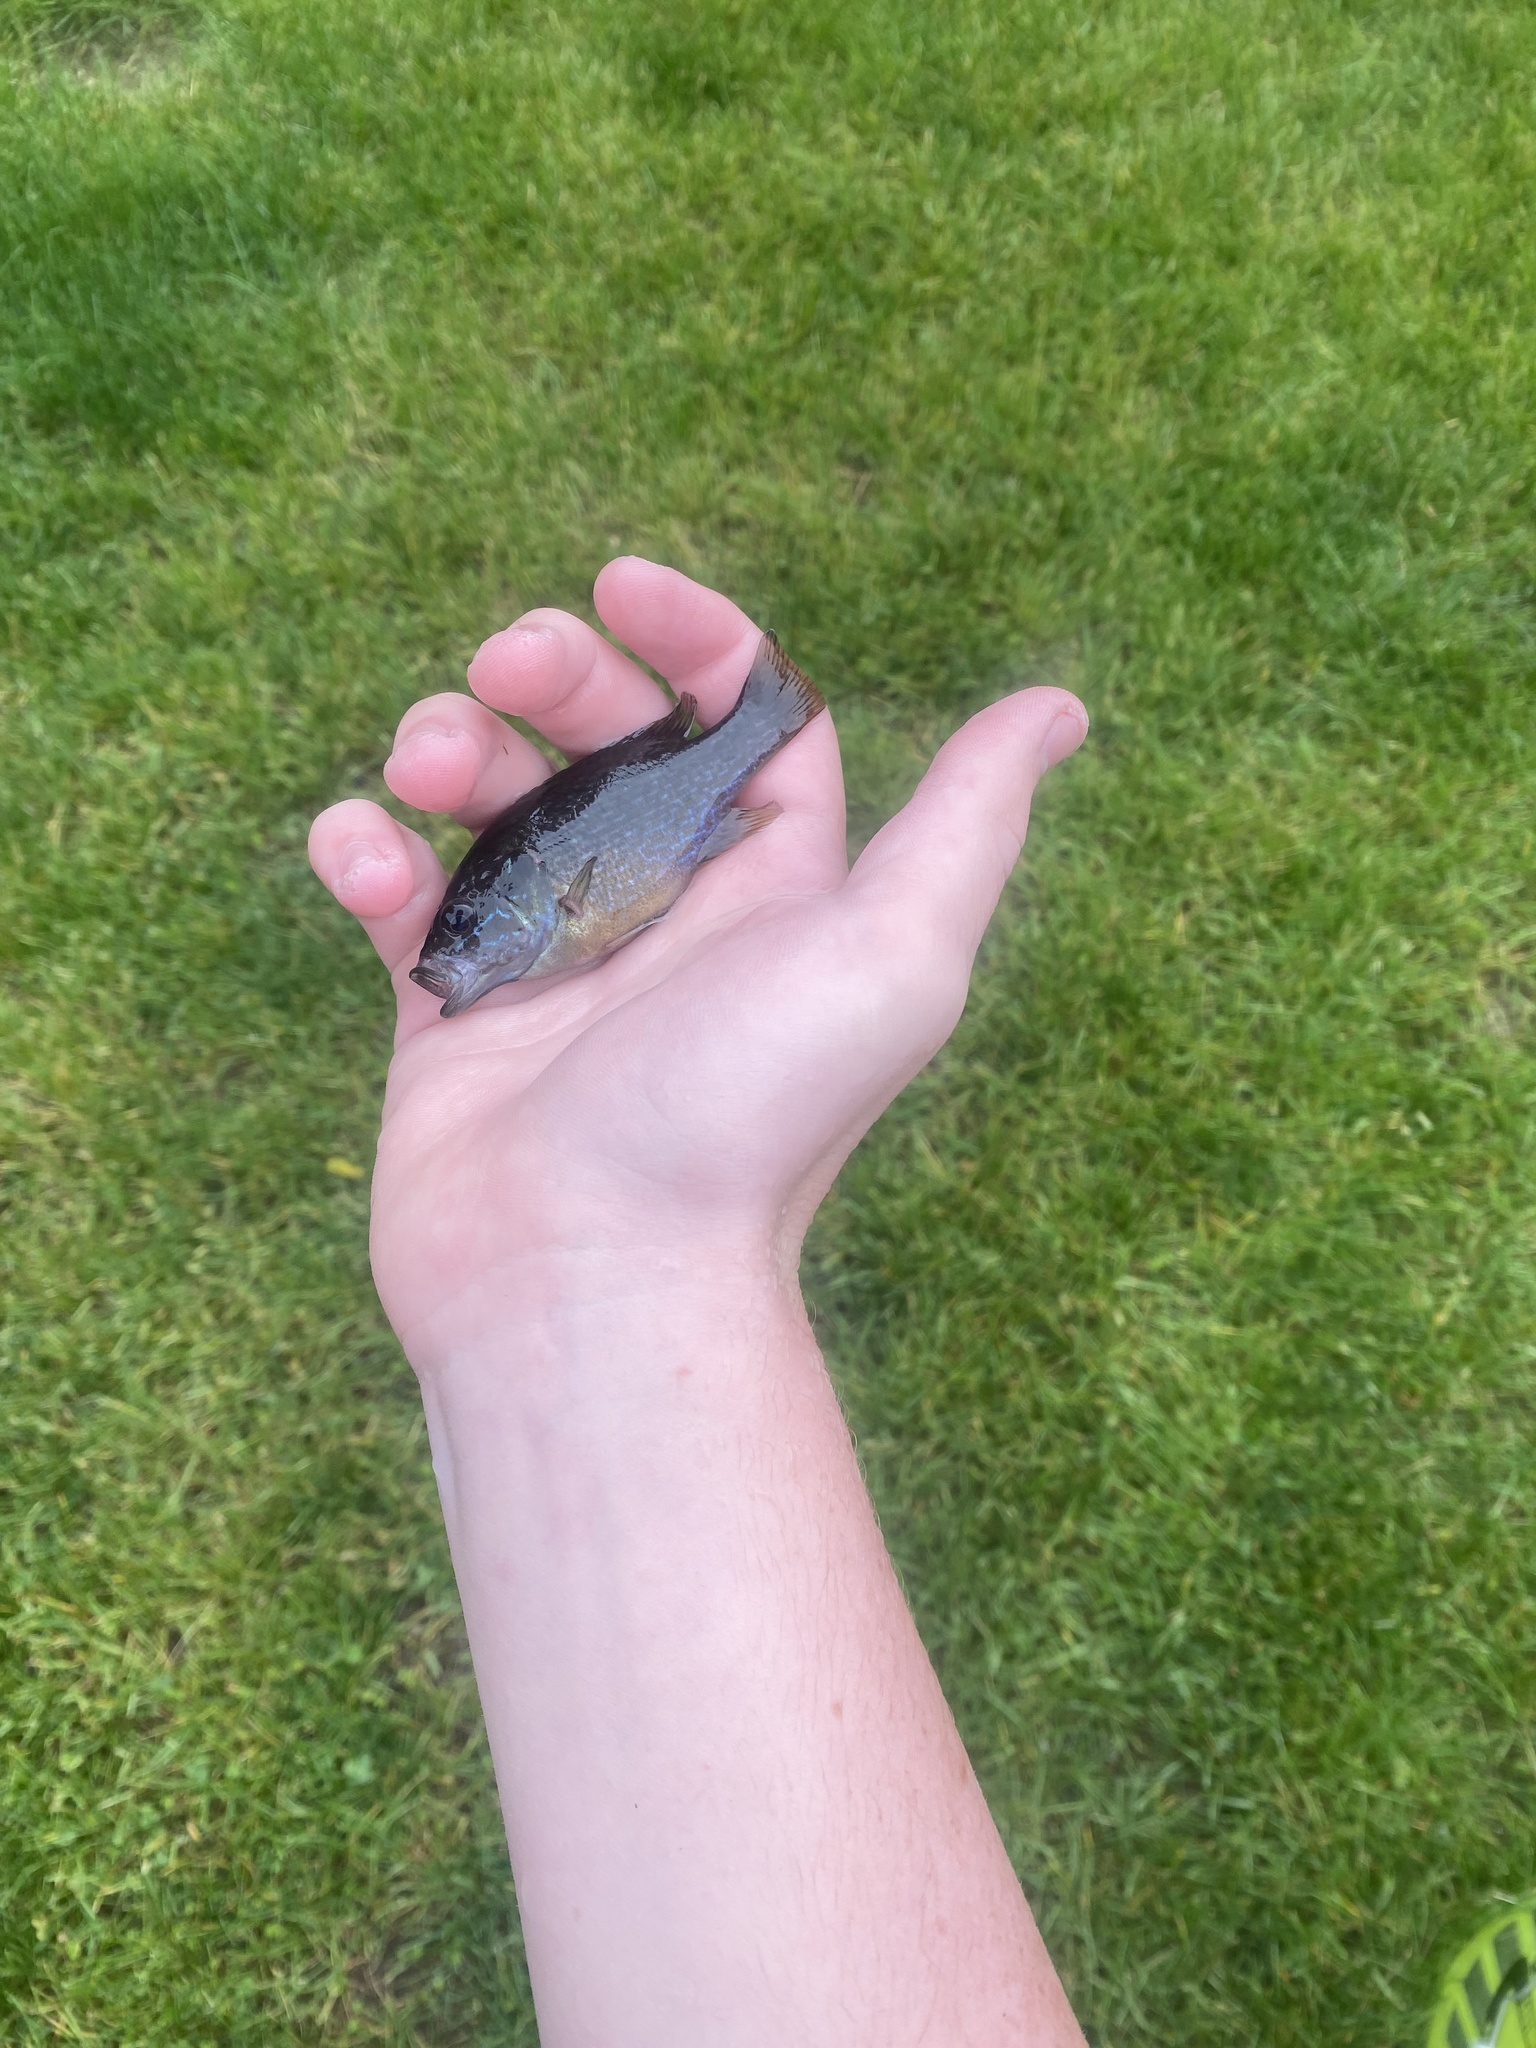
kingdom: Animalia
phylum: Chordata
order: Perciformes
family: Centrarchidae
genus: Lepomis
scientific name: Lepomis cyanellus
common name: Green sunfish
